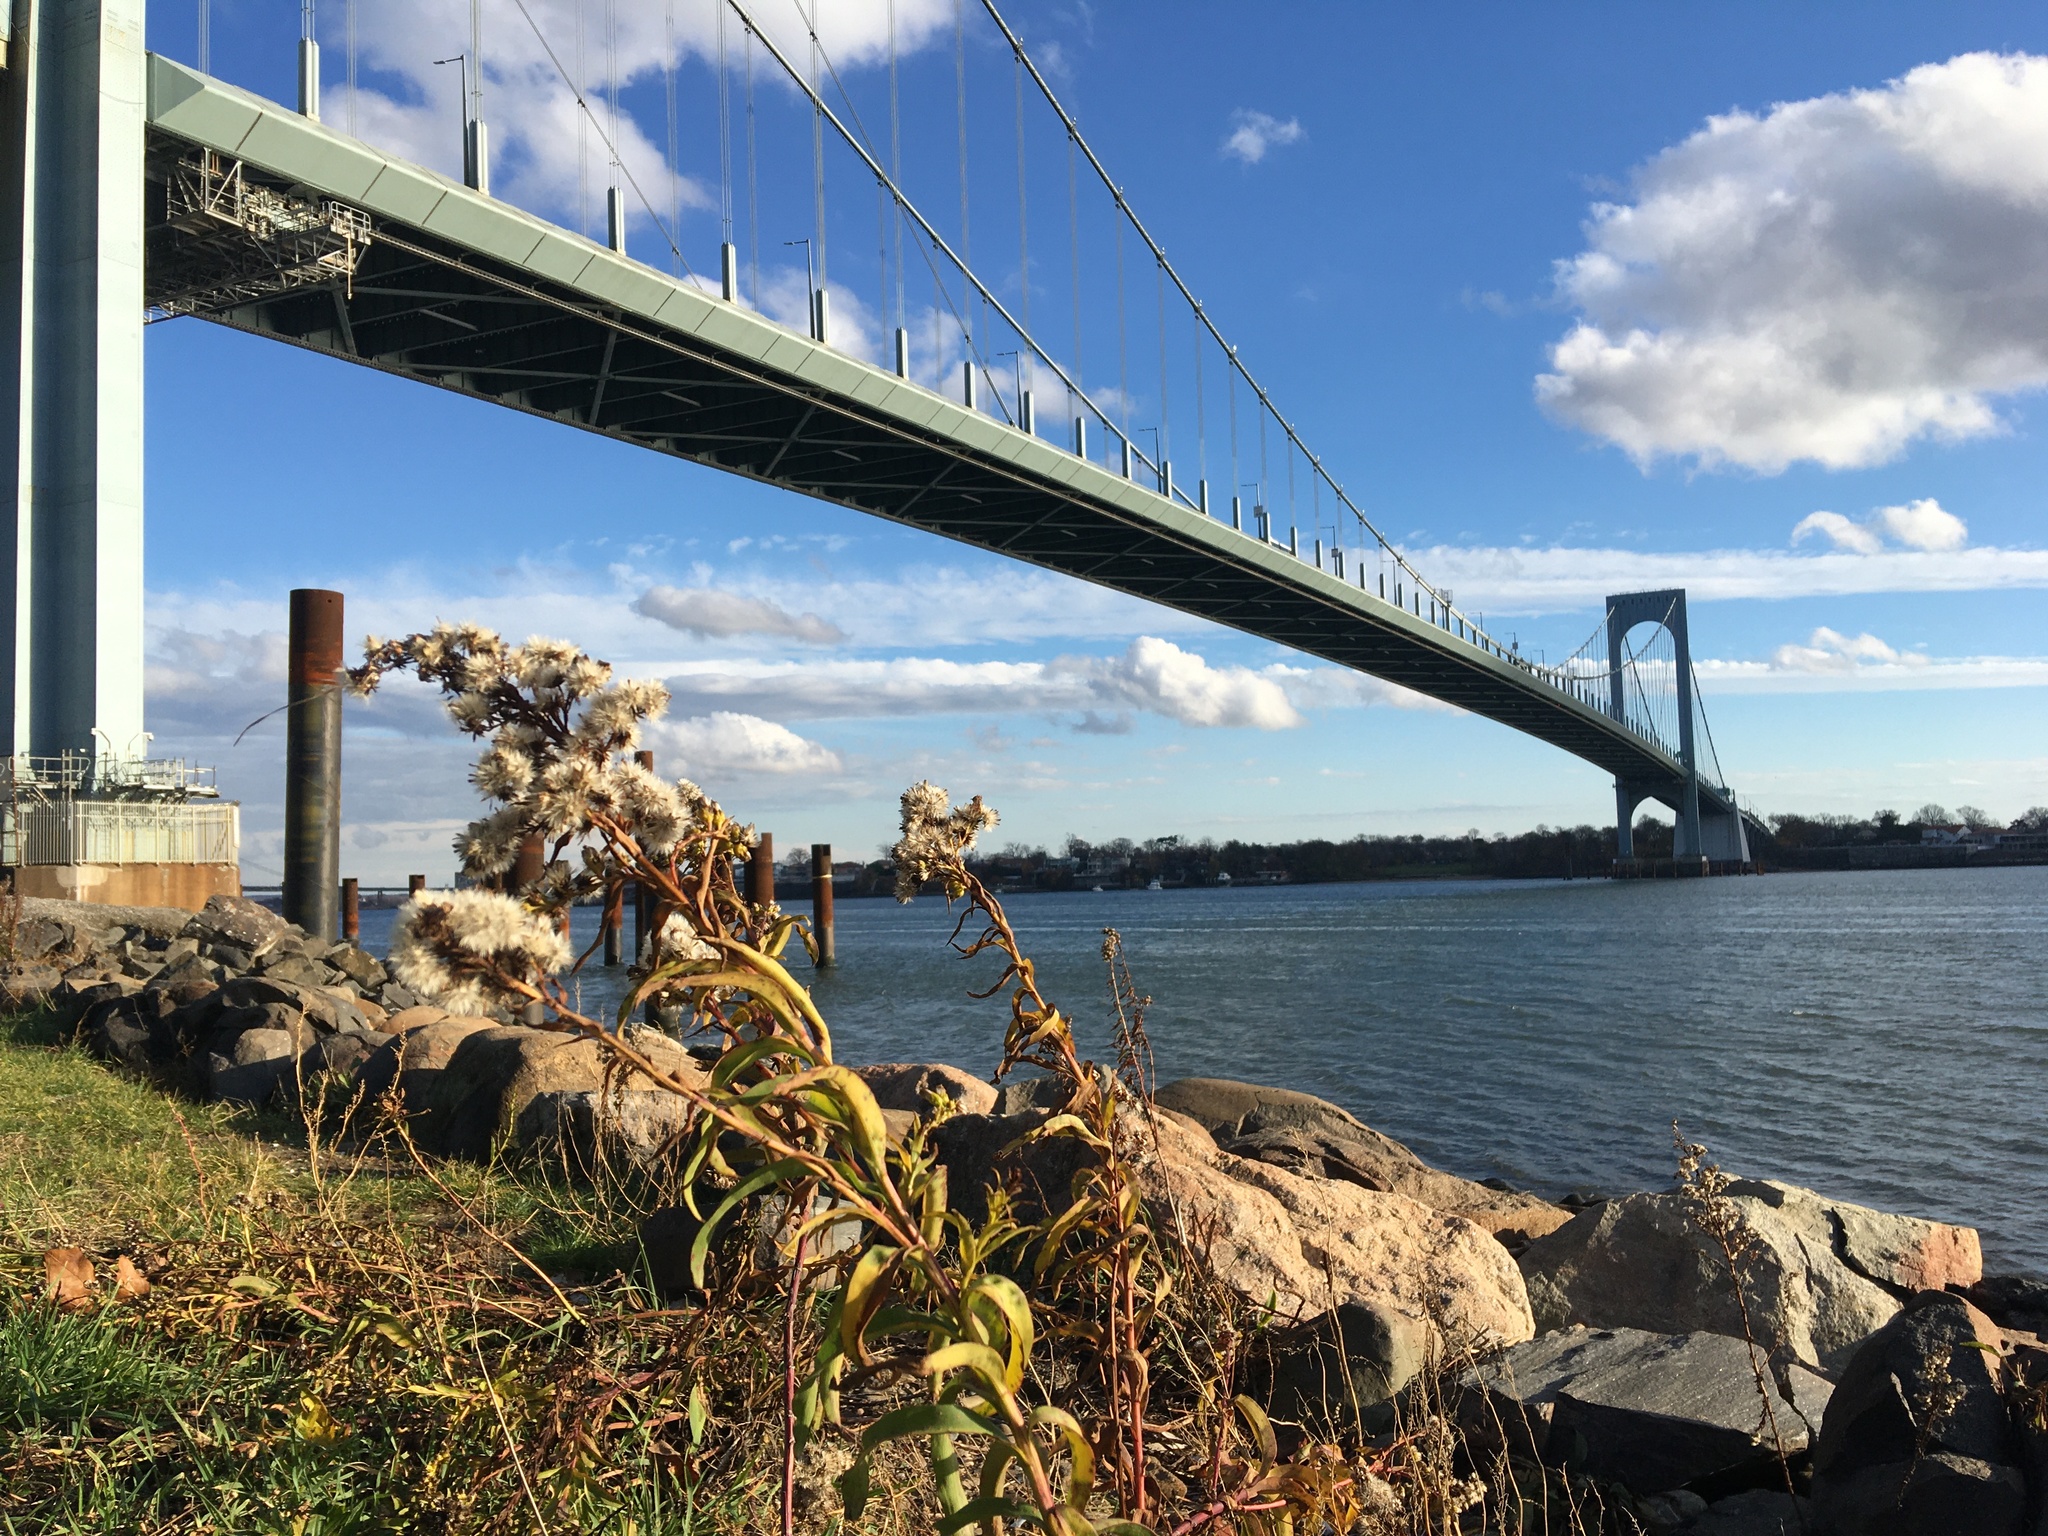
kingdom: Plantae
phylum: Tracheophyta
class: Magnoliopsida
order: Asterales
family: Asteraceae
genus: Solidago
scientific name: Solidago sempervirens
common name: Salt-marsh goldenrod
